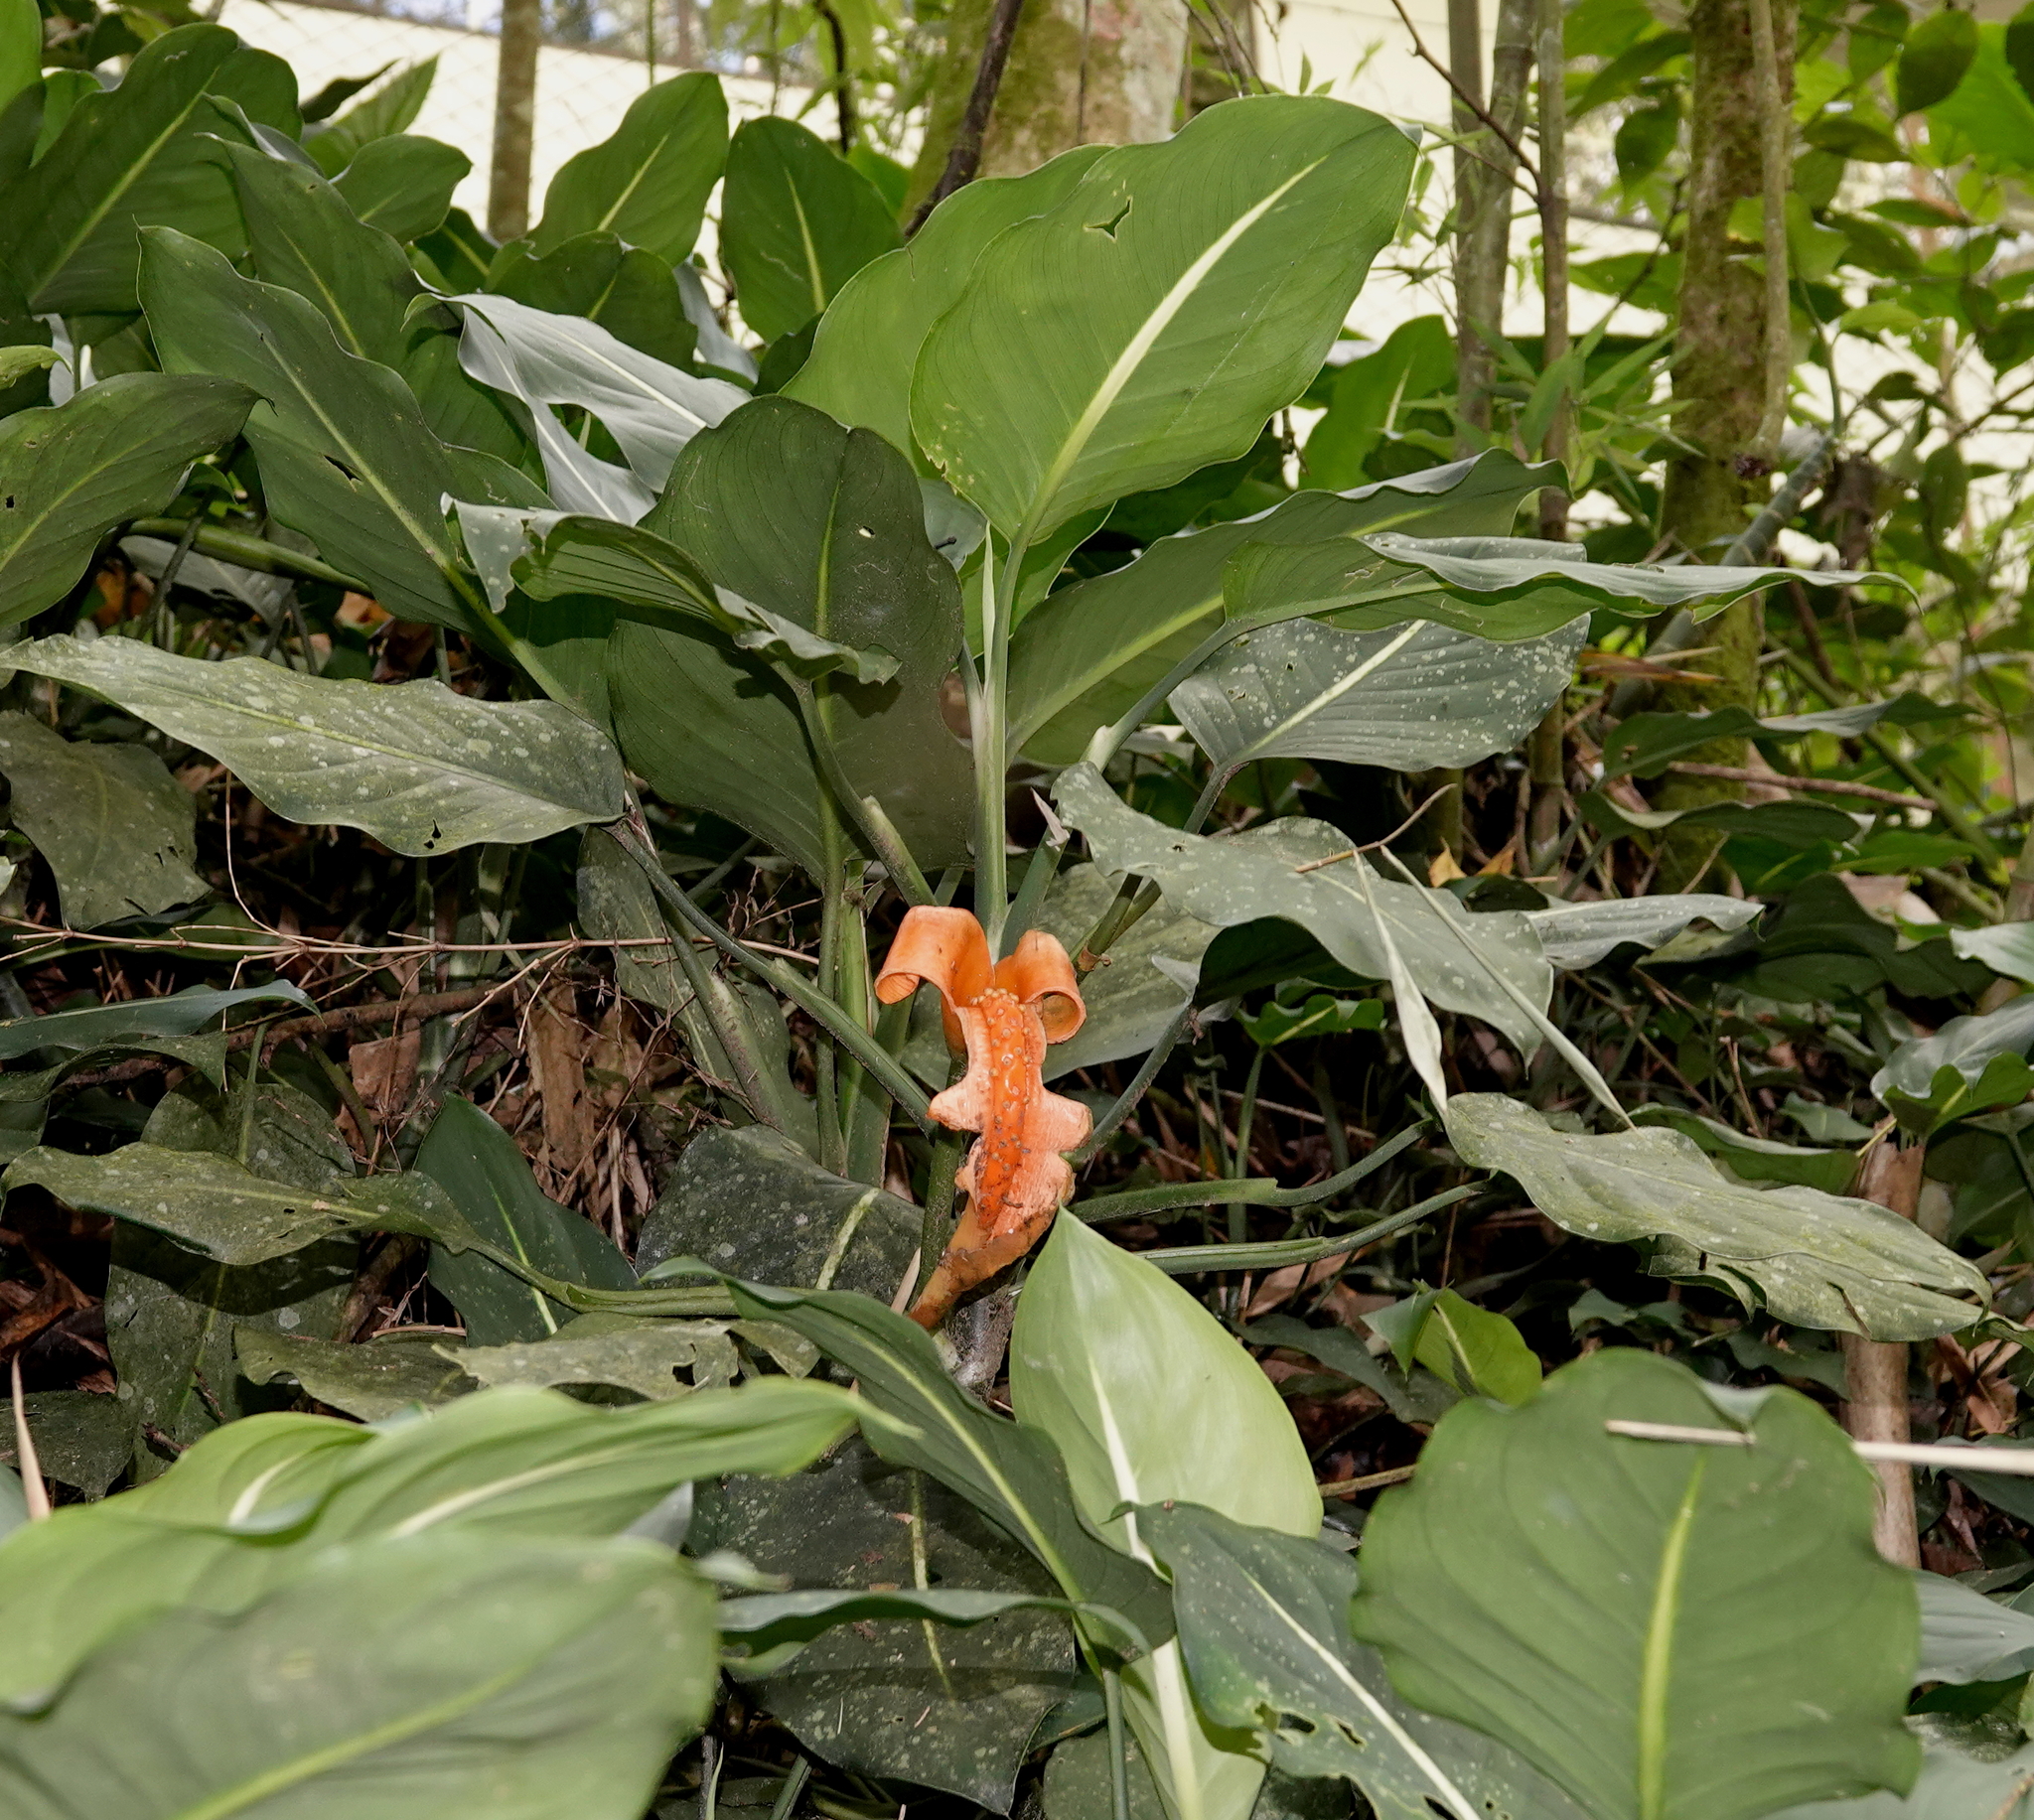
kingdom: Plantae
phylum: Tracheophyta
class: Liliopsida
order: Alismatales
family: Araceae
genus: Dieffenbachia
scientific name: Dieffenbachia oerstedii
